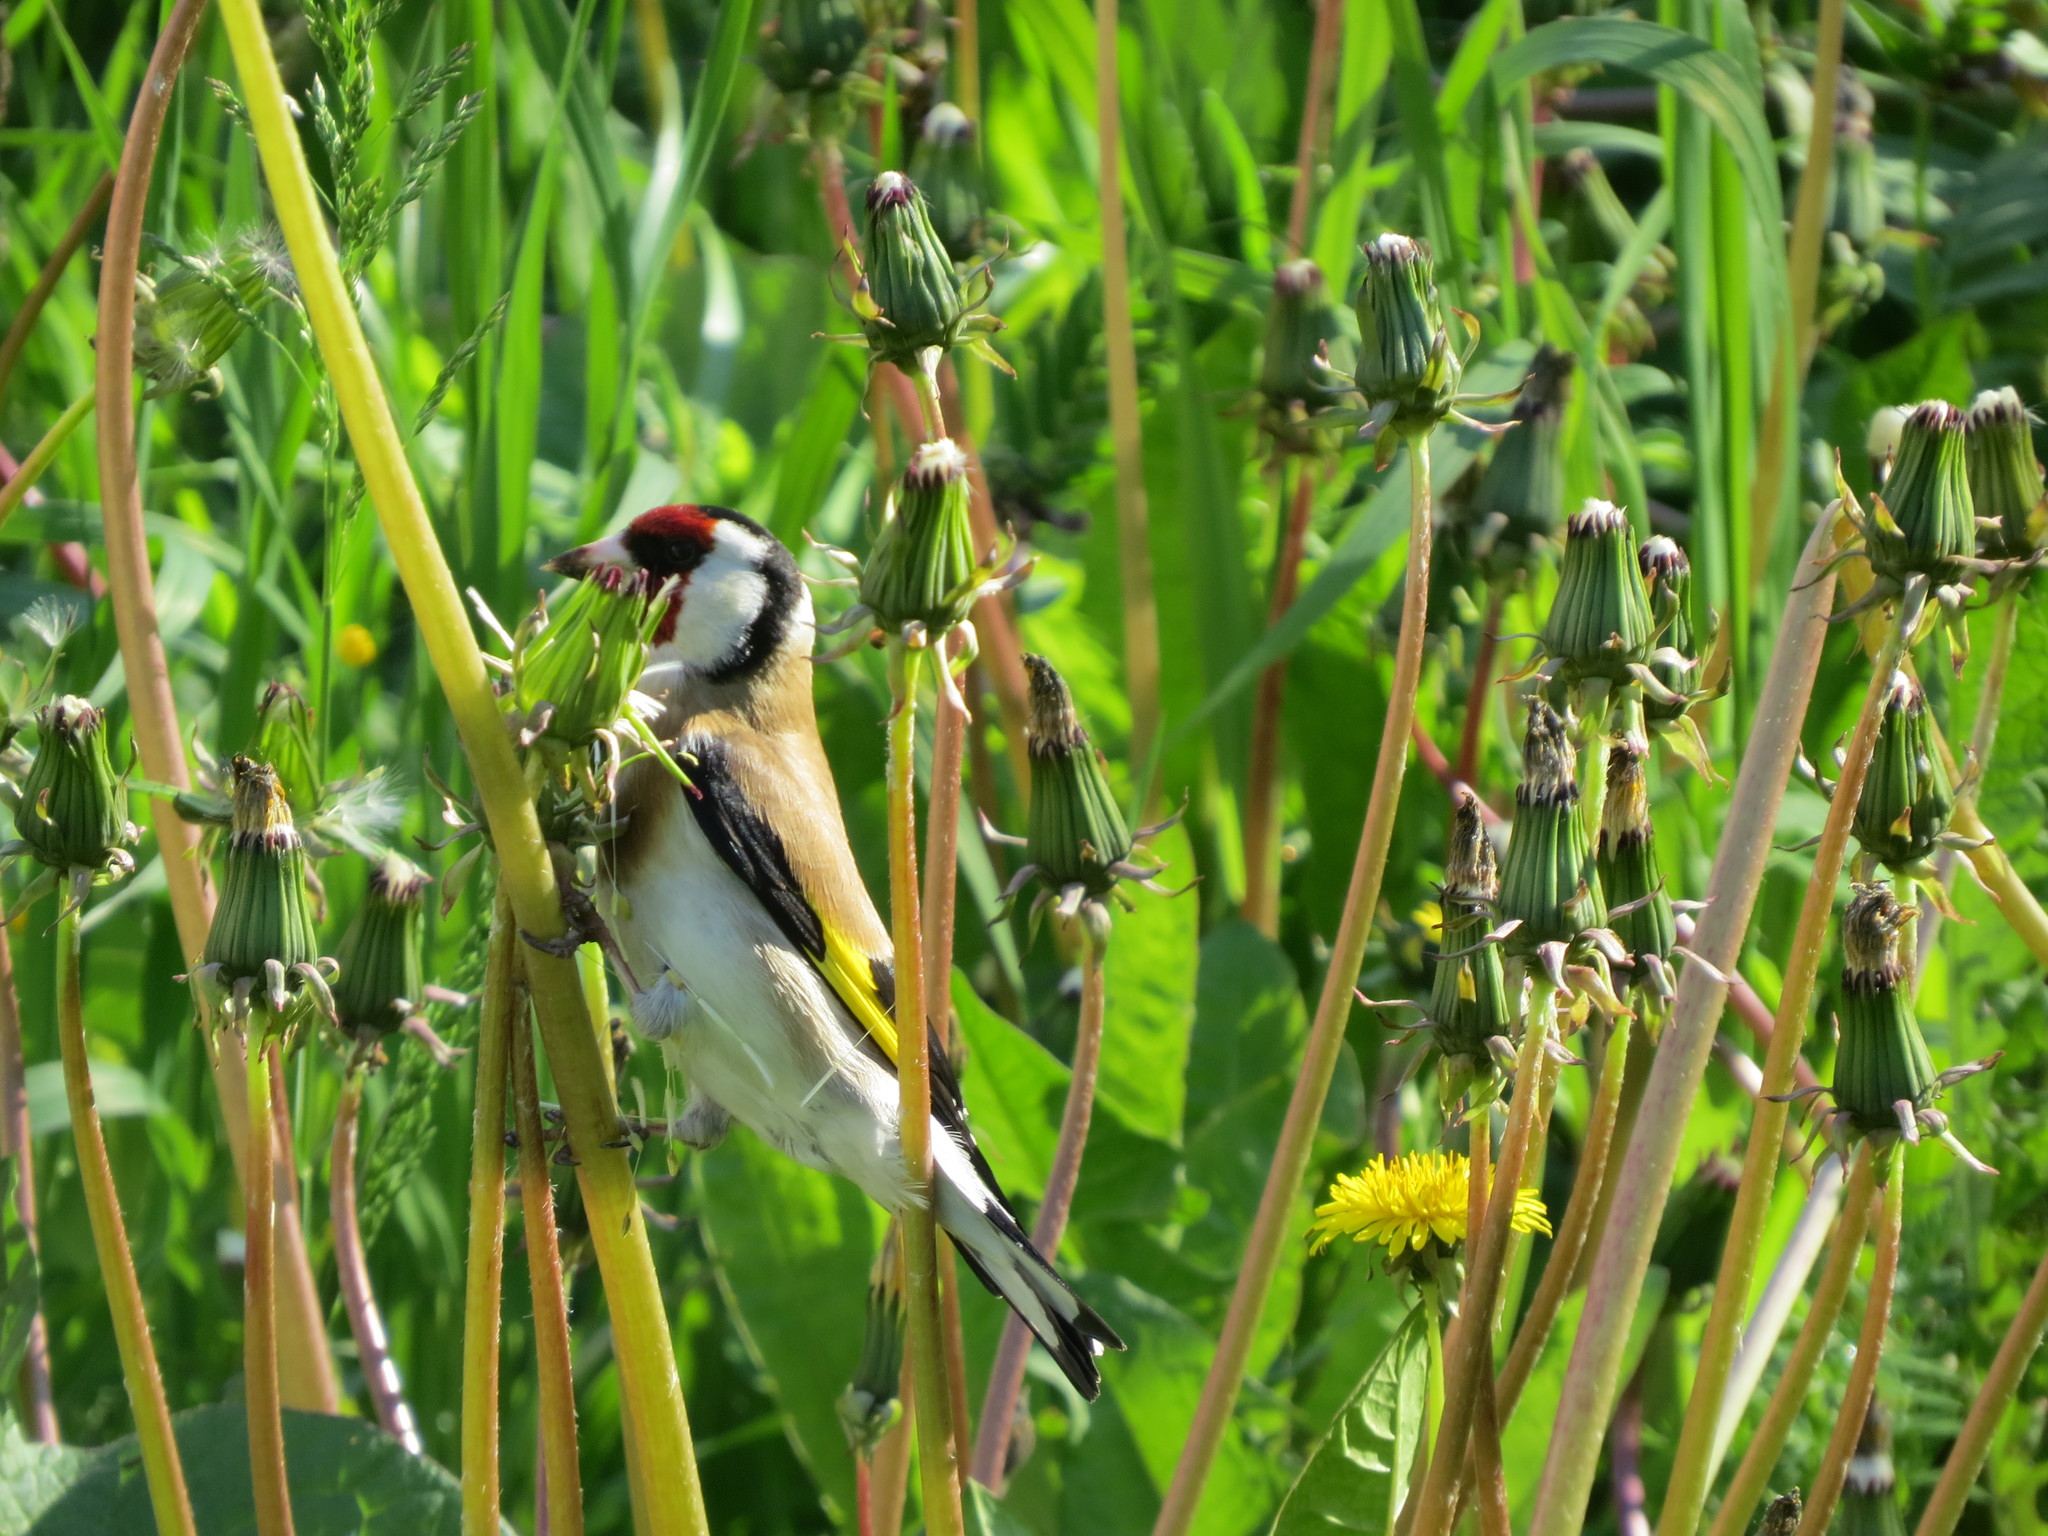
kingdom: Animalia
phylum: Chordata
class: Aves
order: Passeriformes
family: Fringillidae
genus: Carduelis
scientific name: Carduelis carduelis
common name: European goldfinch
